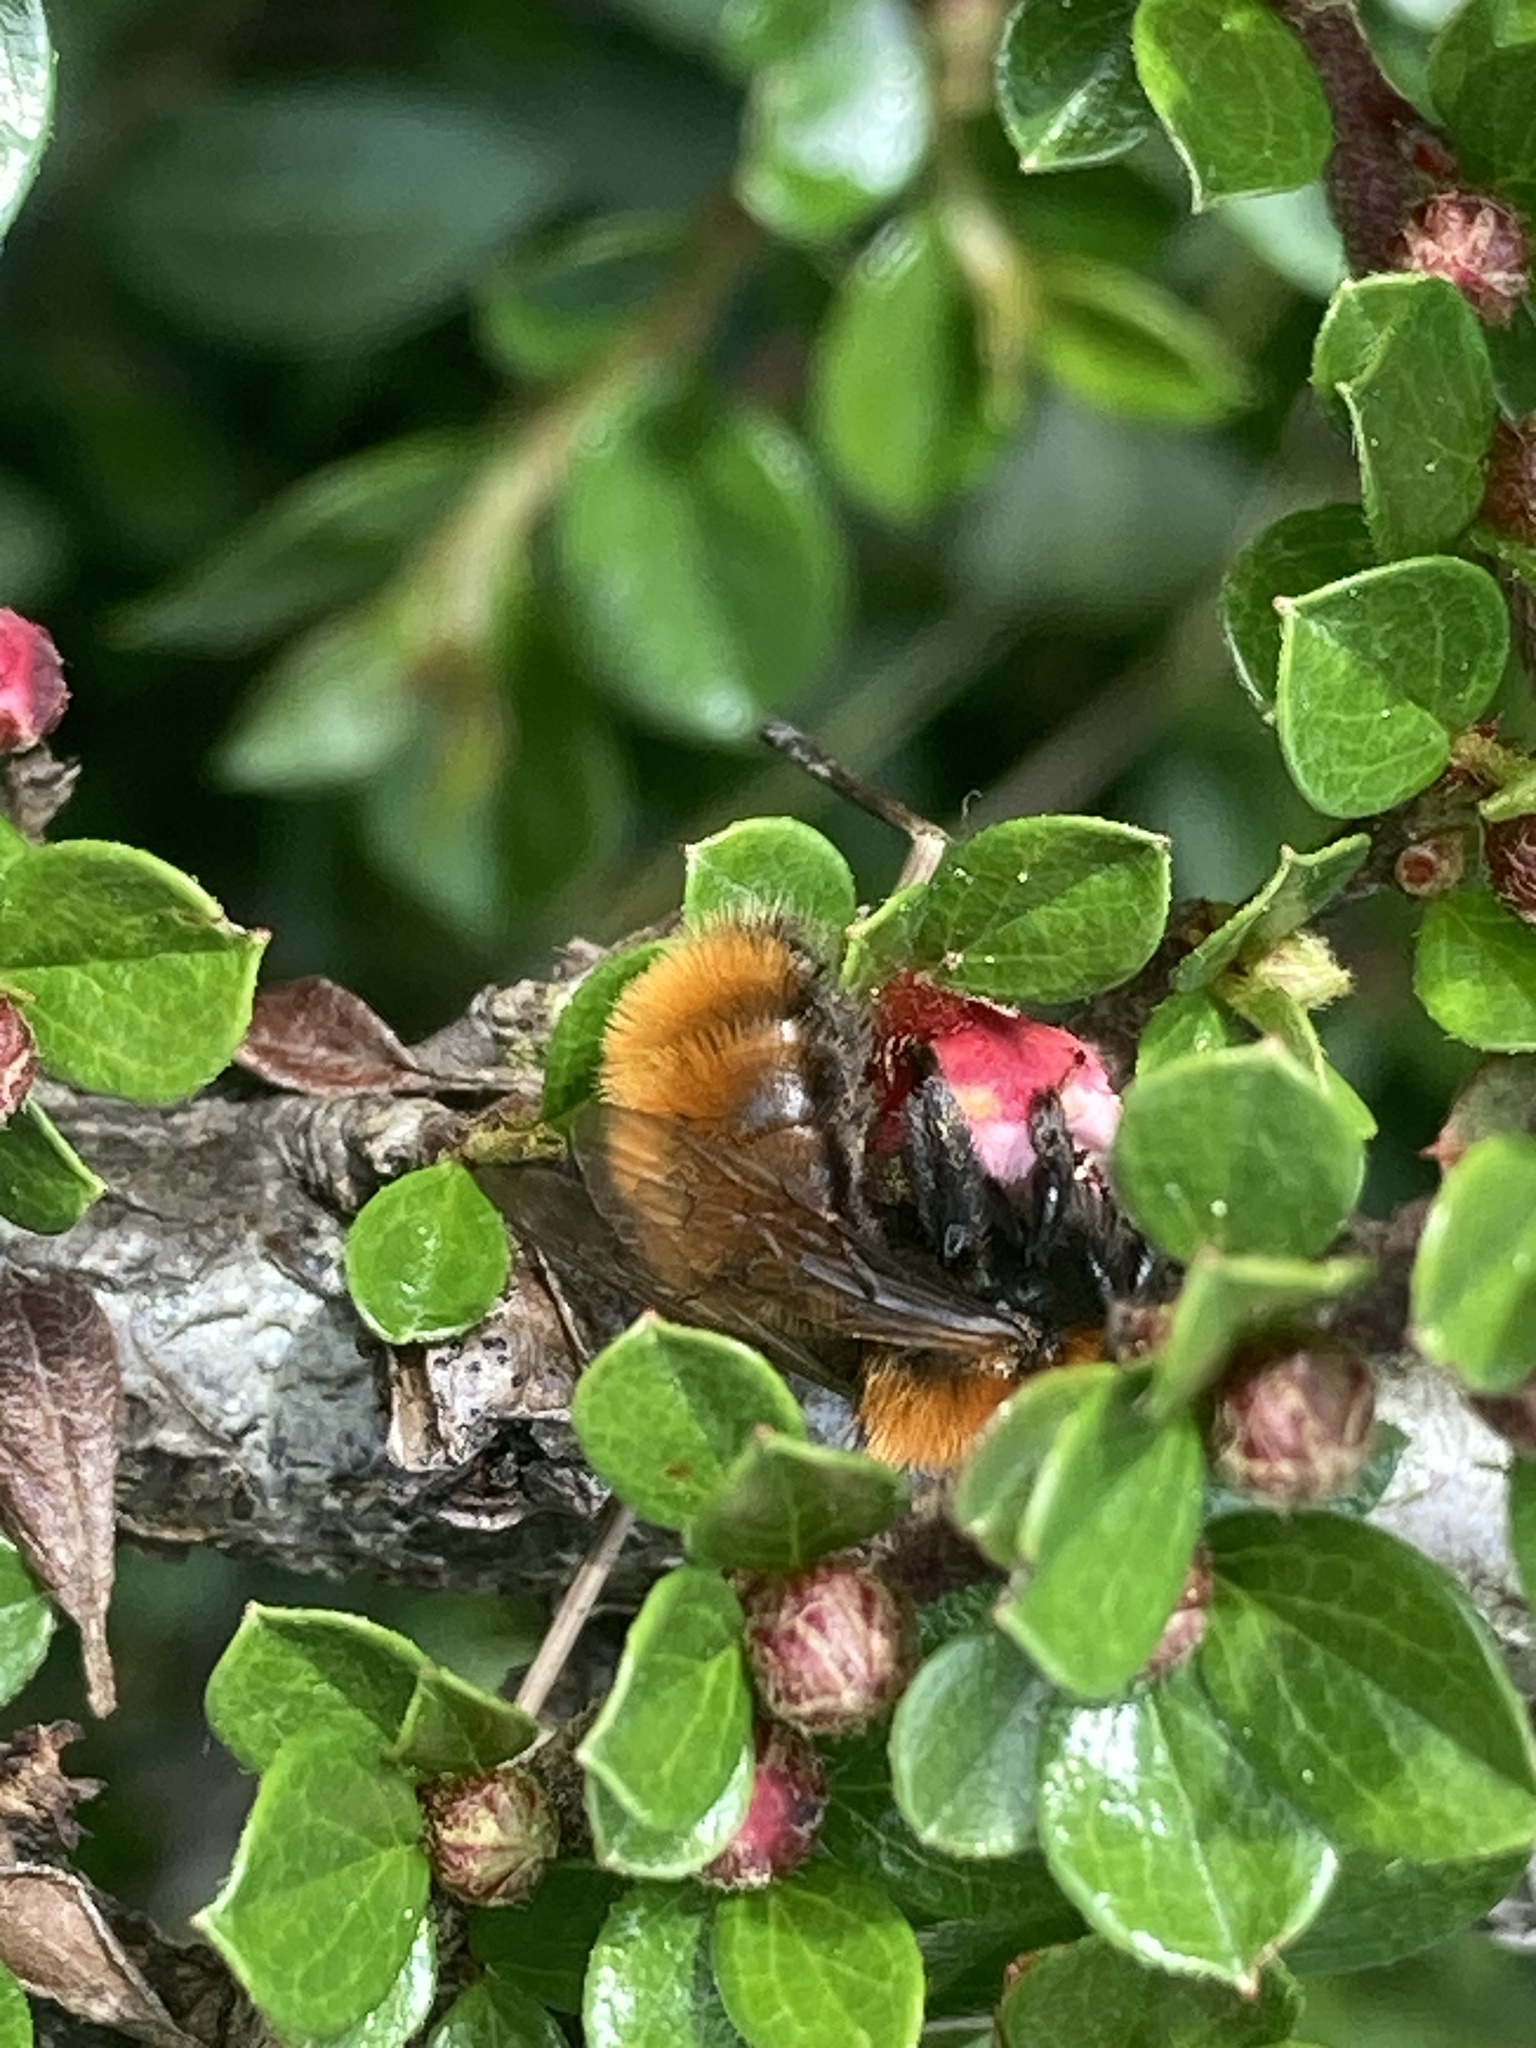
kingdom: Animalia
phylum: Arthropoda
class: Insecta
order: Hymenoptera
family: Andrenidae
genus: Andrena
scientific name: Andrena fulva
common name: Tawny mining bee
